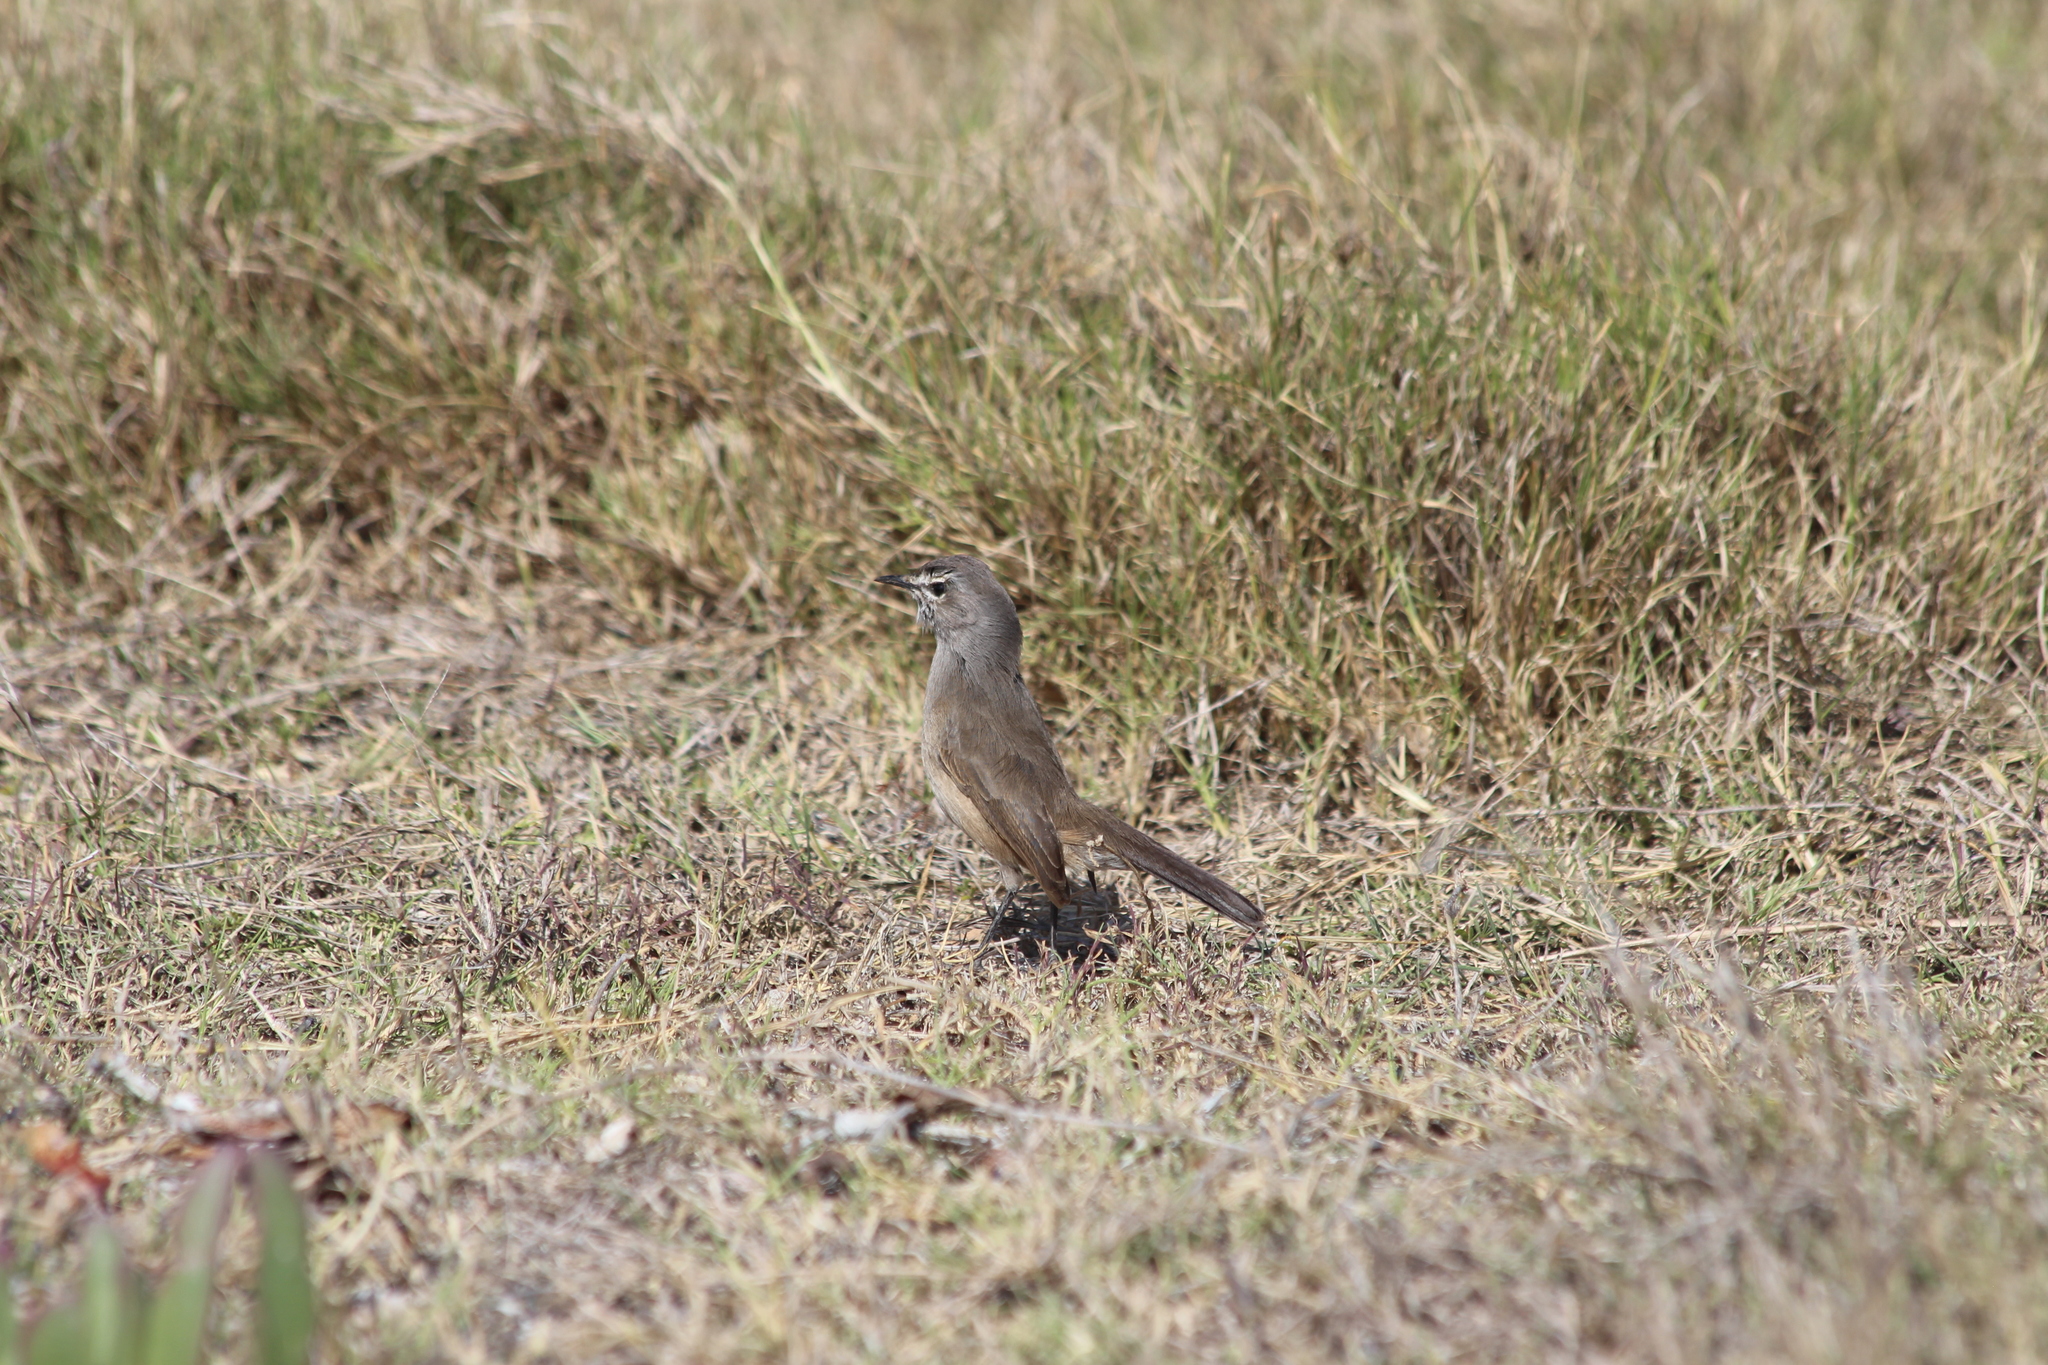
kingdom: Animalia
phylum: Chordata
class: Aves
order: Passeriformes
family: Muscicapidae
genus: Erythropygia
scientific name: Erythropygia coryphoeus
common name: Karoo scrub robin
